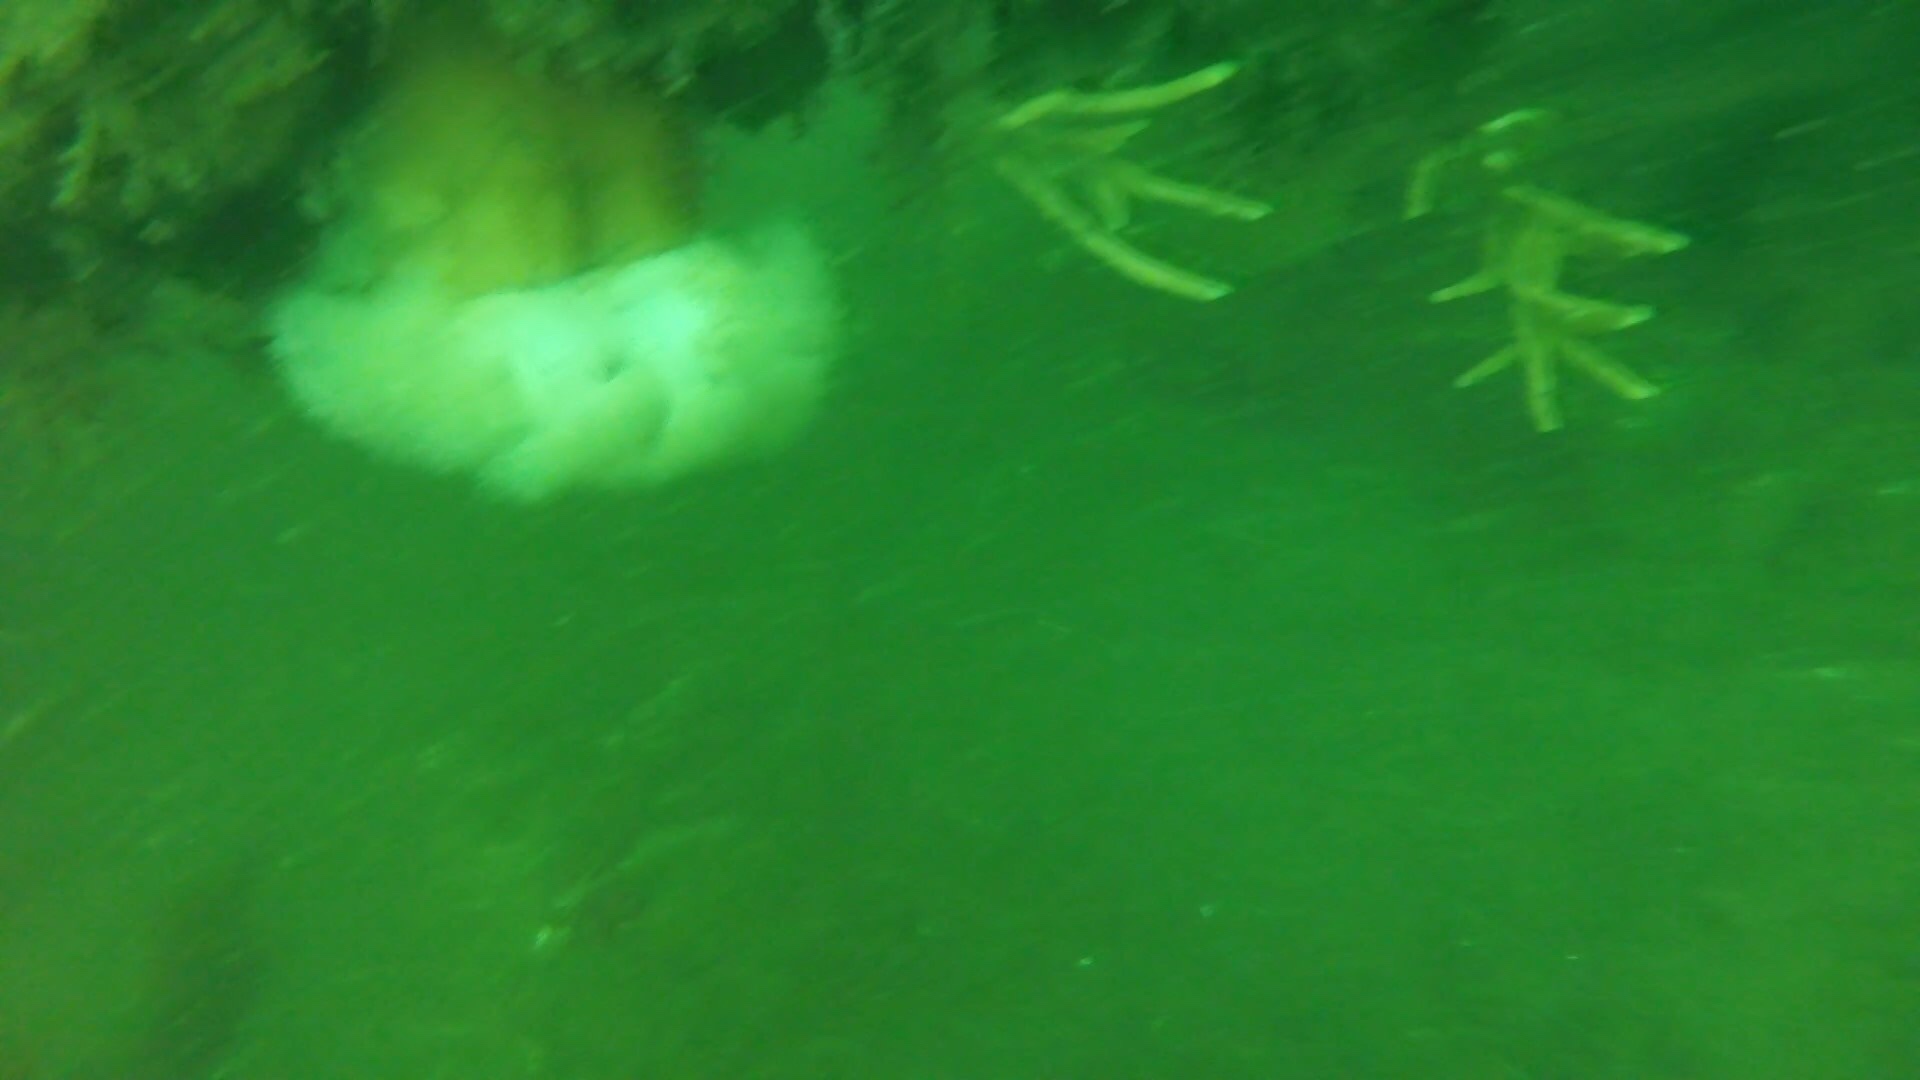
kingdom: Animalia
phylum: Cnidaria
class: Anthozoa
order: Actiniaria
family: Metridiidae
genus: Metridium
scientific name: Metridium senile
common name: Clonal plumose anemone
